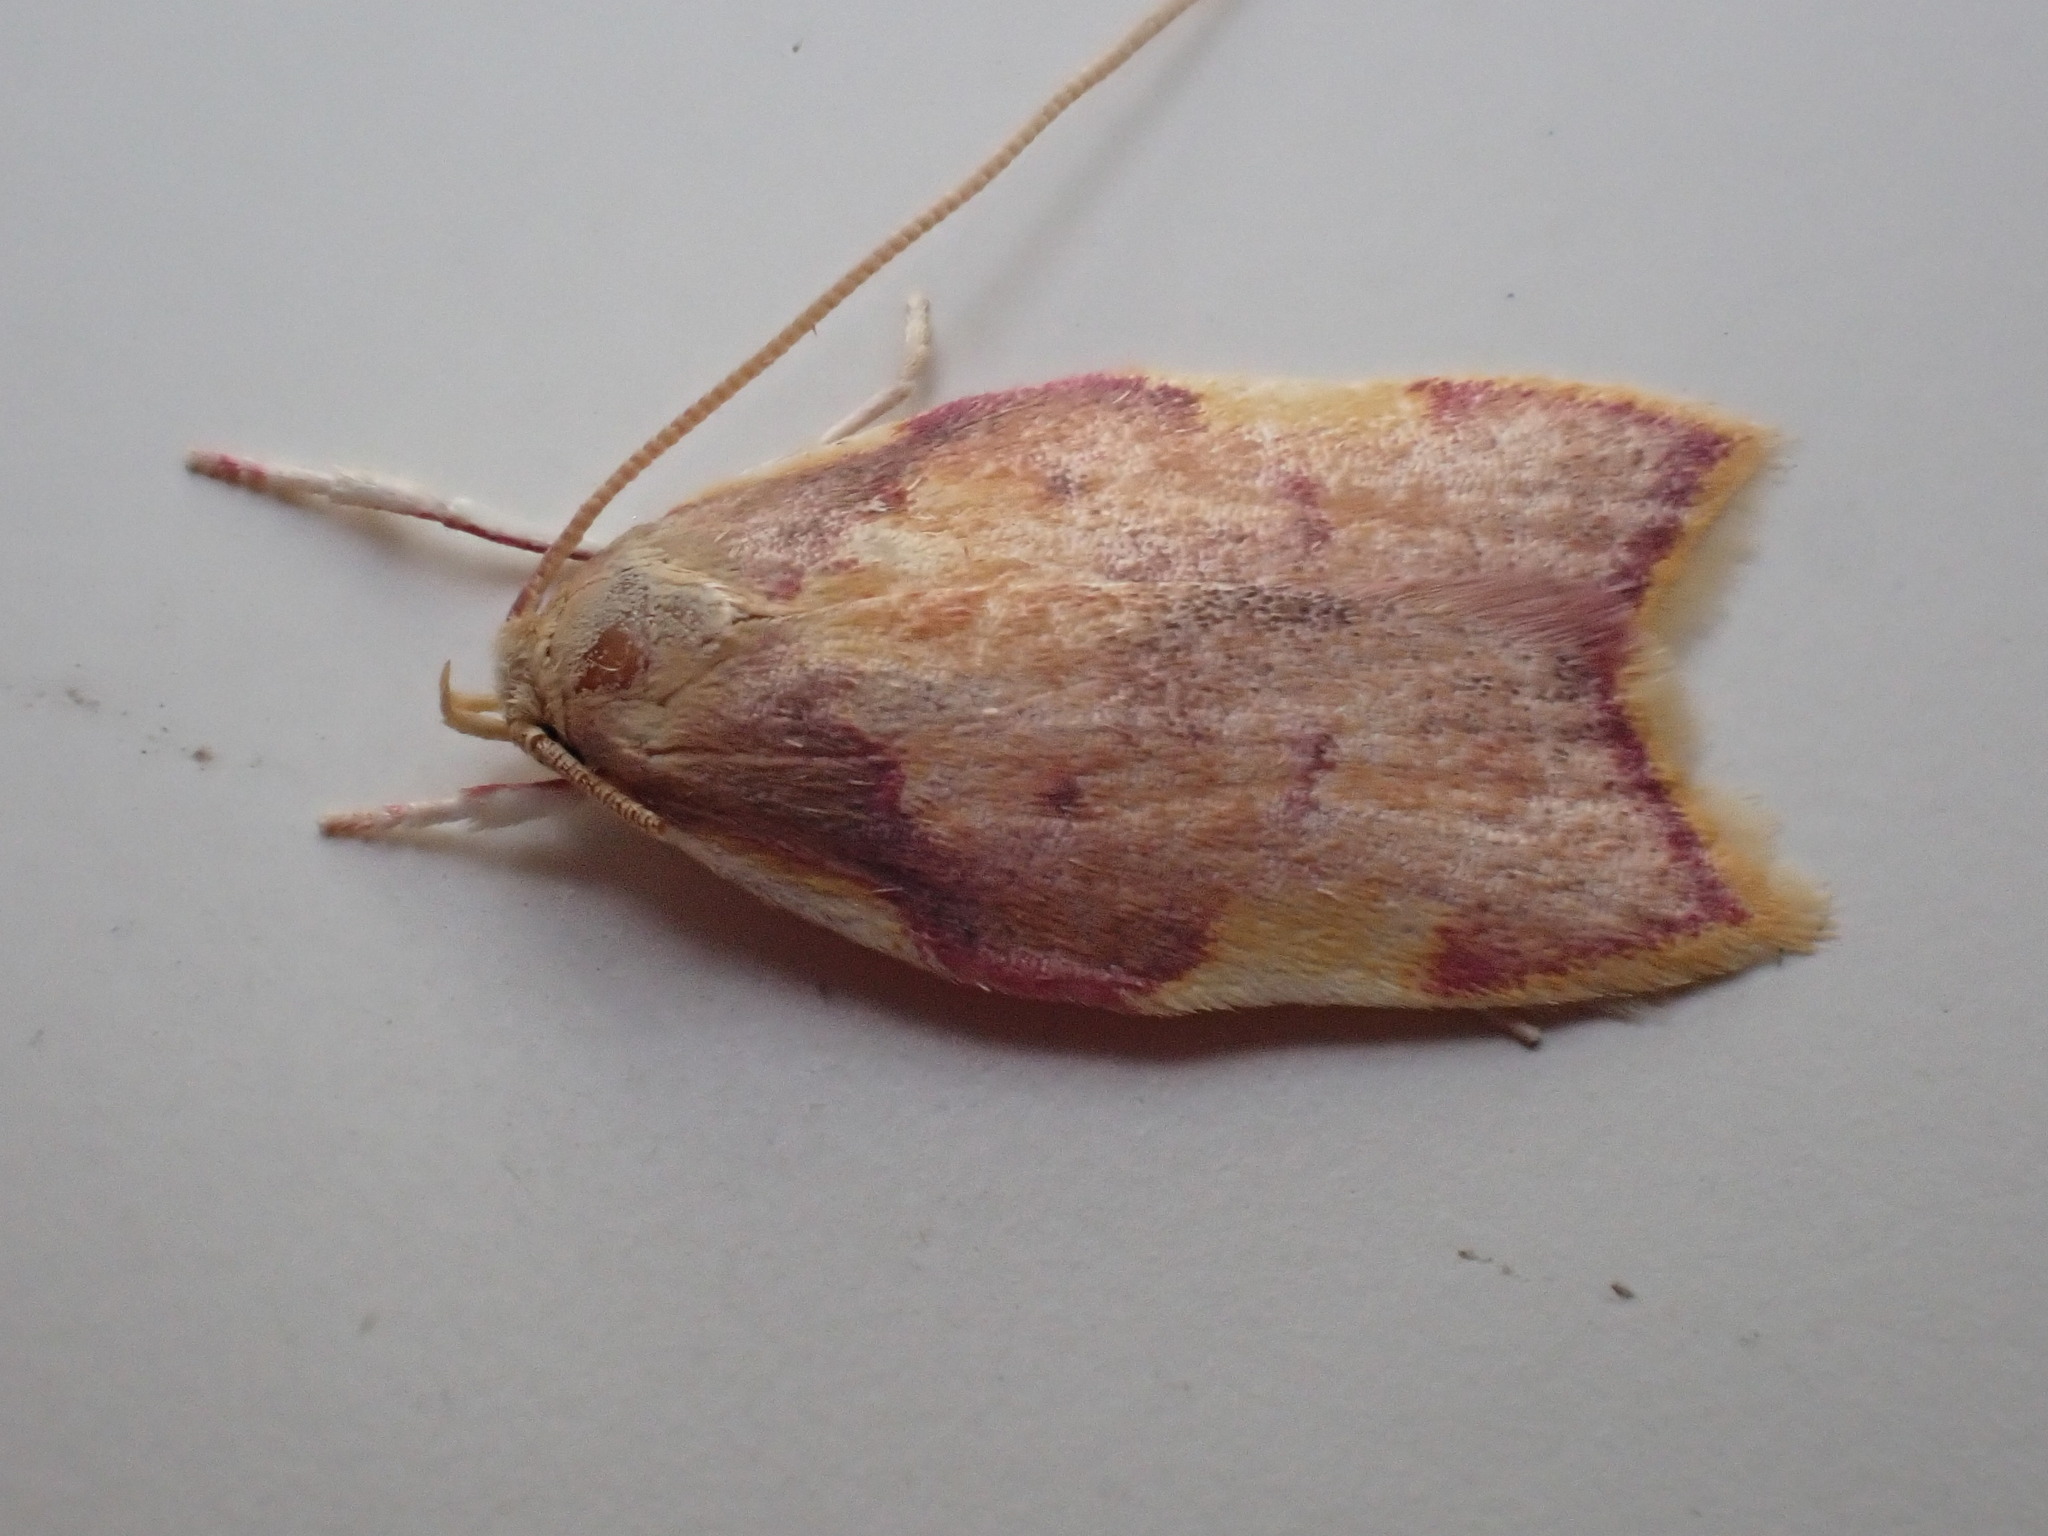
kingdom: Animalia
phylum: Arthropoda
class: Insecta
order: Lepidoptera
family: Peleopodidae
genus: Carcina
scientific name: Carcina quercana
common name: Moth
